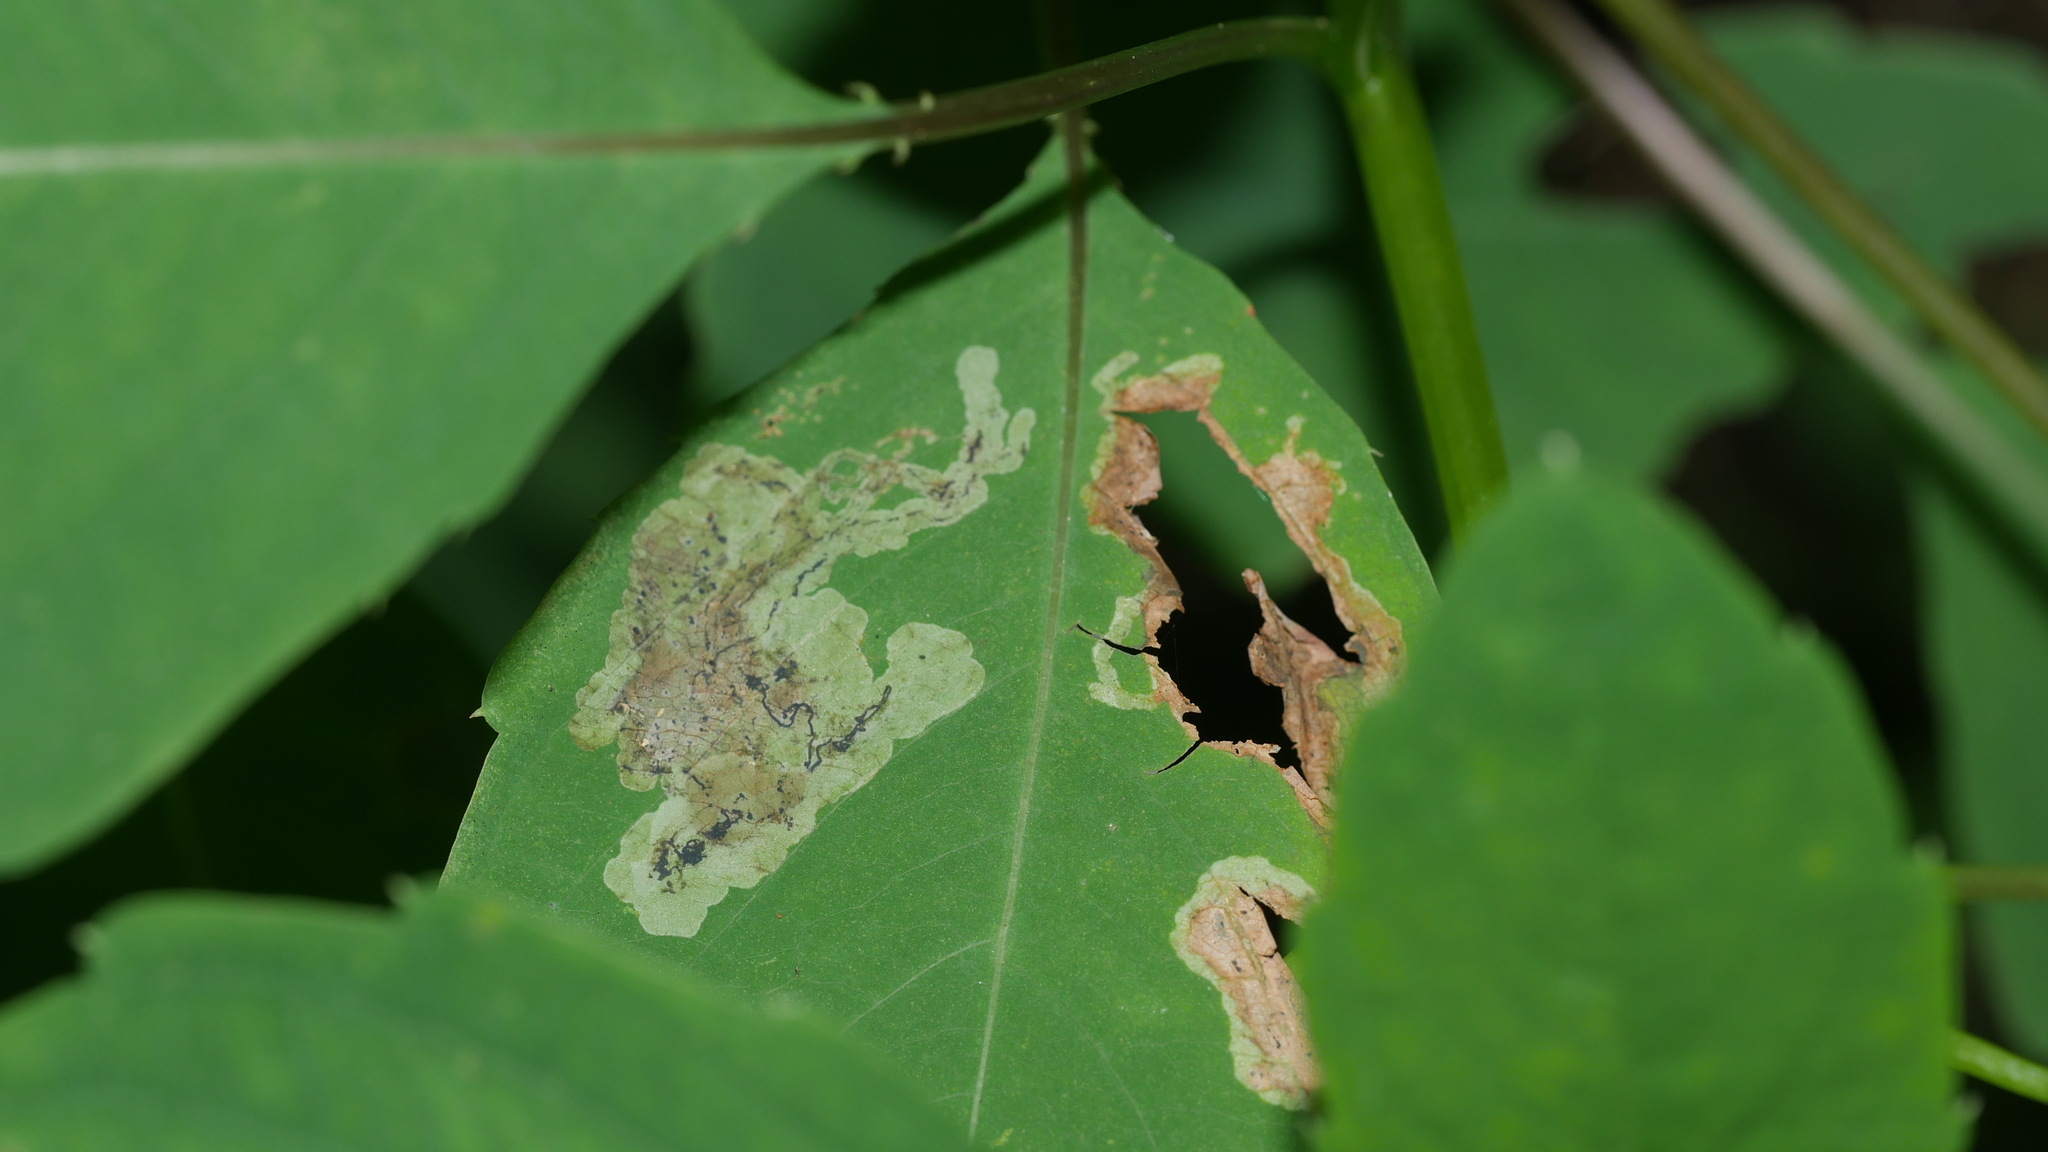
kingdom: Animalia
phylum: Arthropoda
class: Insecta
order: Diptera
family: Agromyzidae
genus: Phytoliriomyza
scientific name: Phytoliriomyza melampyga
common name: Jewelweed leaf-miner fly
